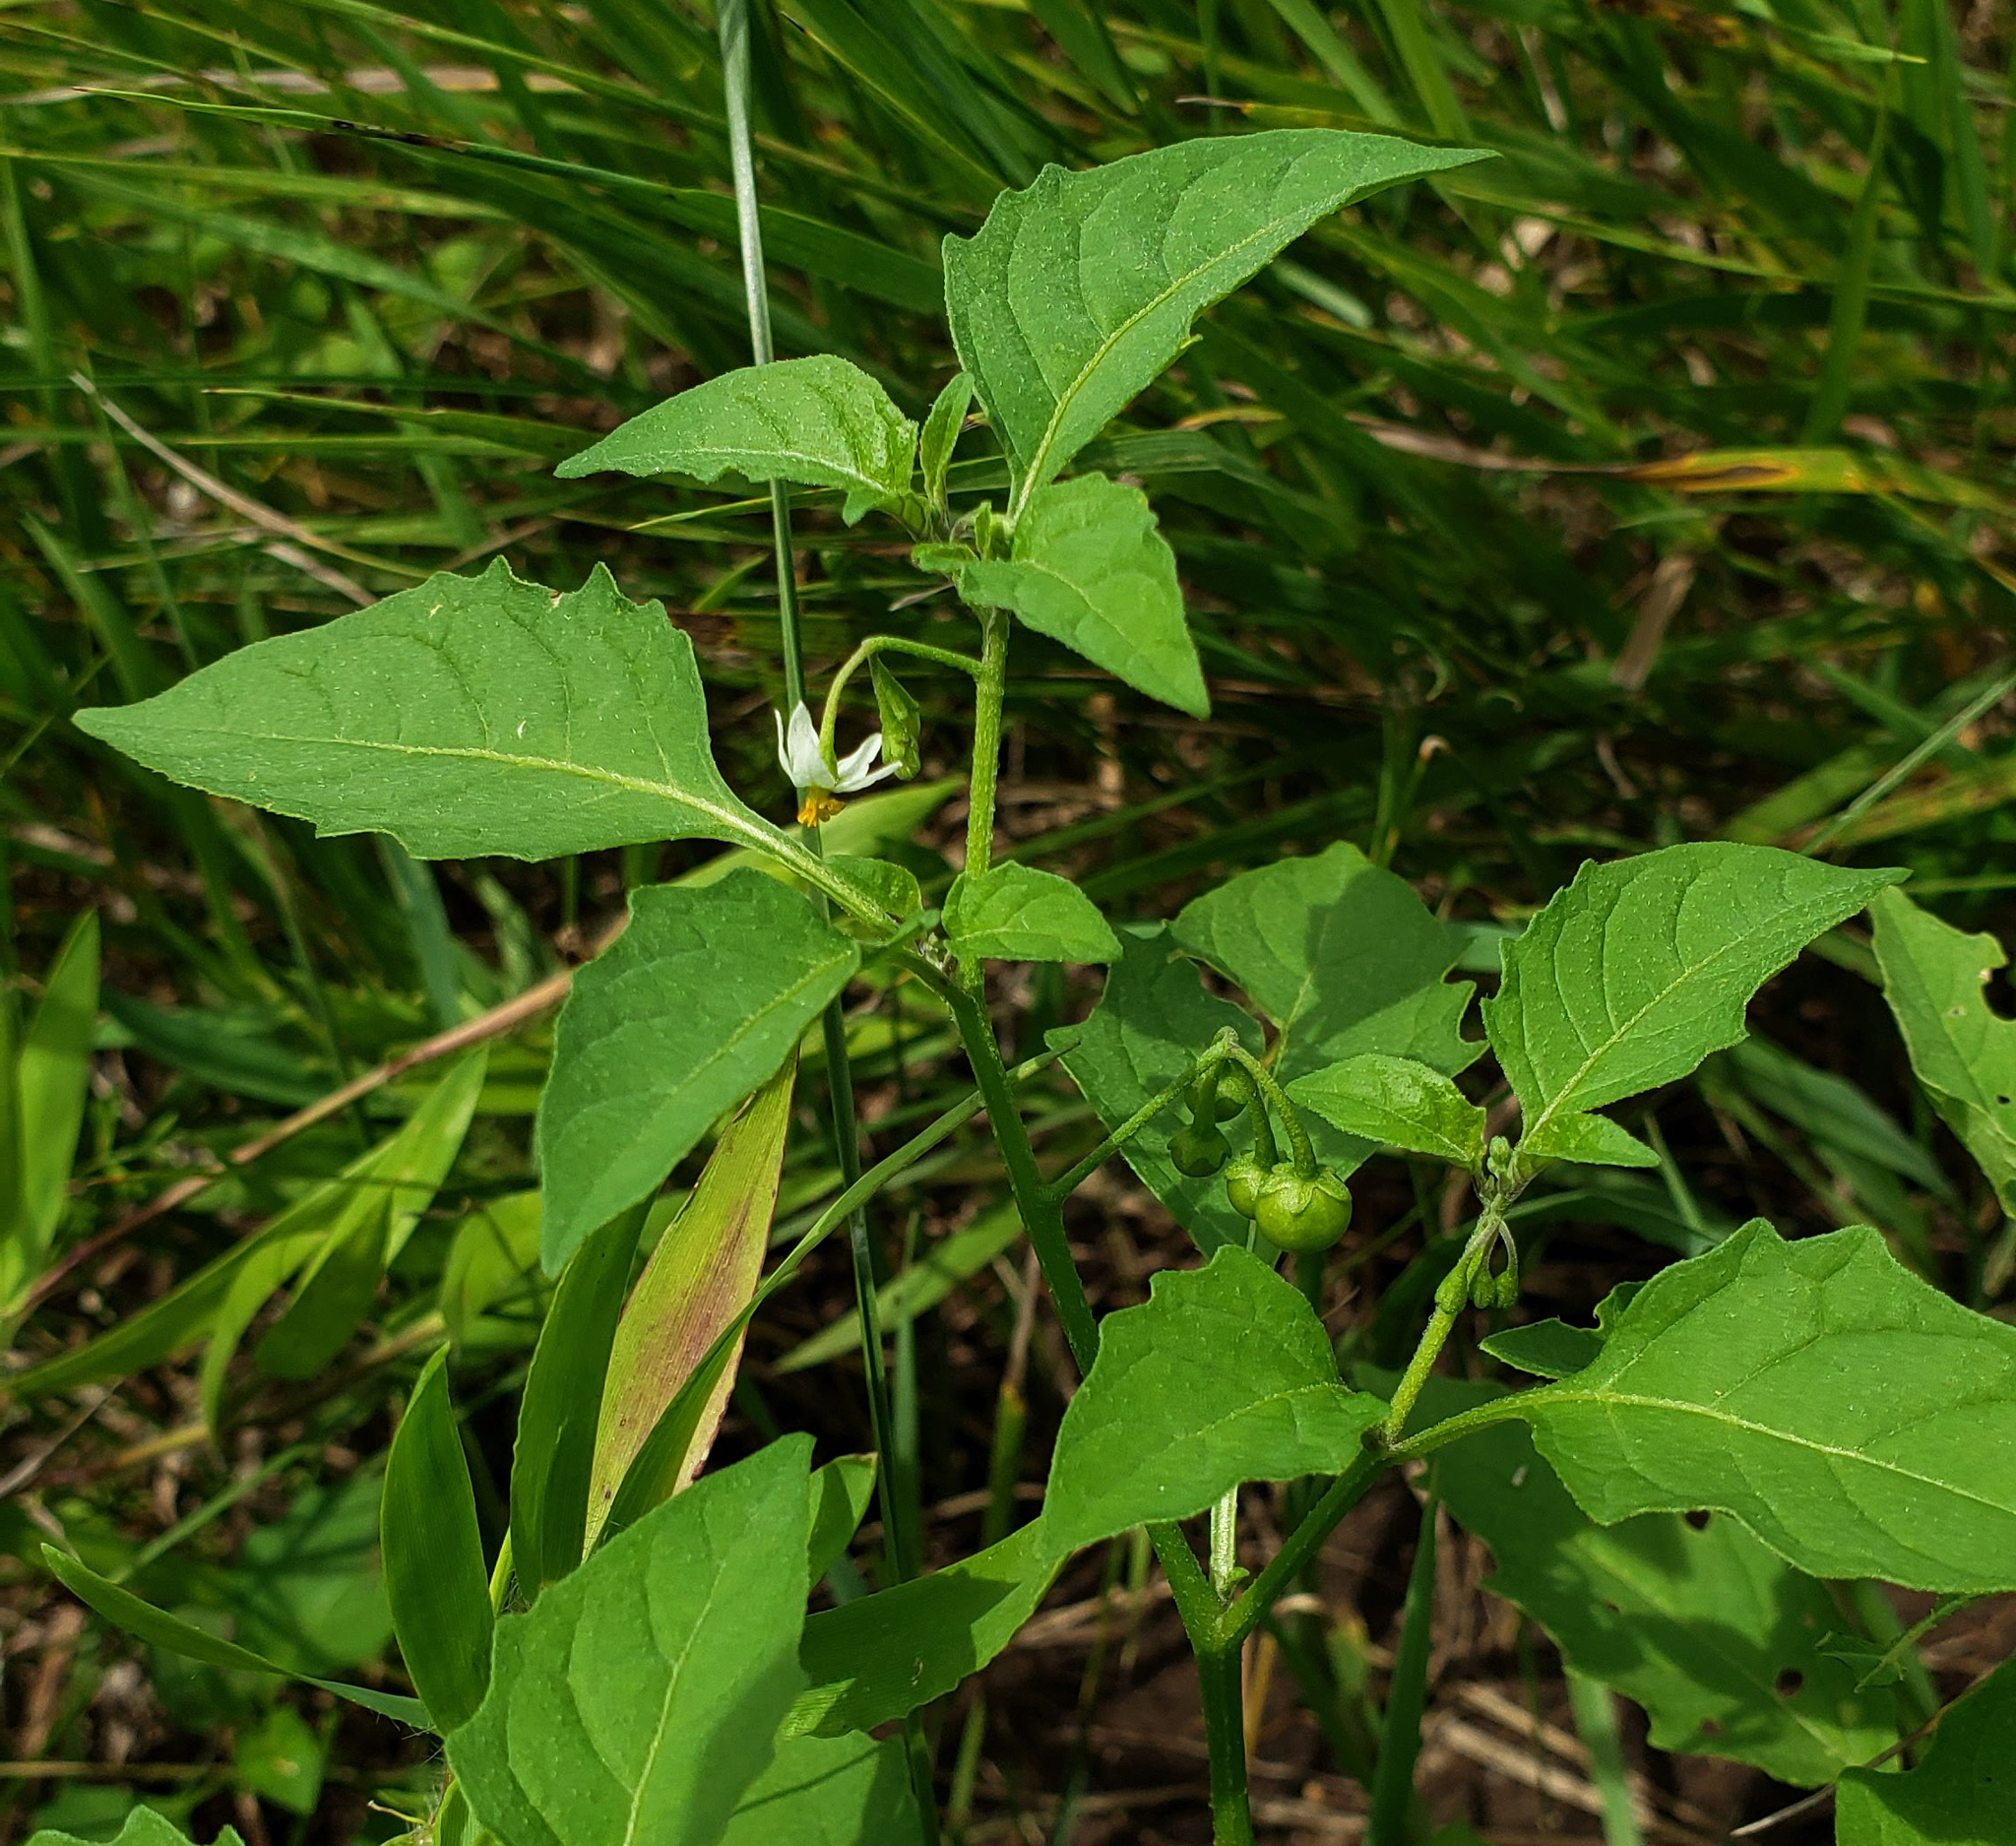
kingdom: Plantae
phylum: Tracheophyta
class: Magnoliopsida
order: Solanales
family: Solanaceae
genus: Solanum
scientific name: Solanum emulans
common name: Eastern black nightshade
